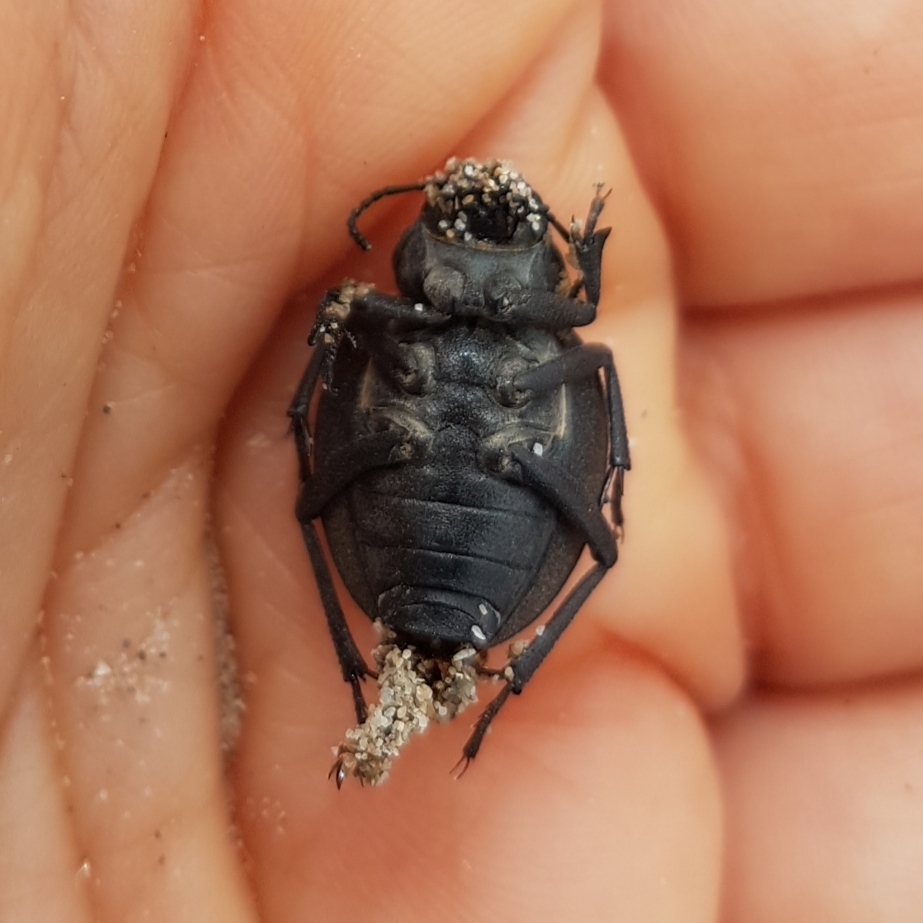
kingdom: Animalia
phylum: Arthropoda
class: Insecta
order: Coleoptera
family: Tenebrionidae
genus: Pimelia
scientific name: Pimelia muricata
